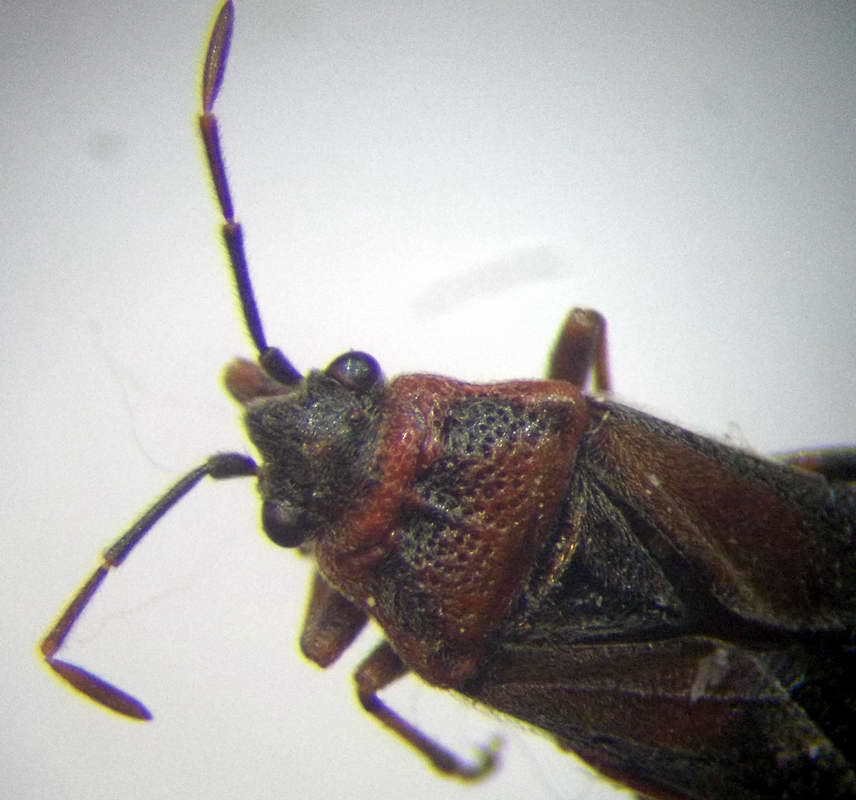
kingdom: Animalia
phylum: Arthropoda
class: Insecta
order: Hemiptera
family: Lygaeidae
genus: Arocatus
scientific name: Arocatus melanocephalus
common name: Lygaeid bug
